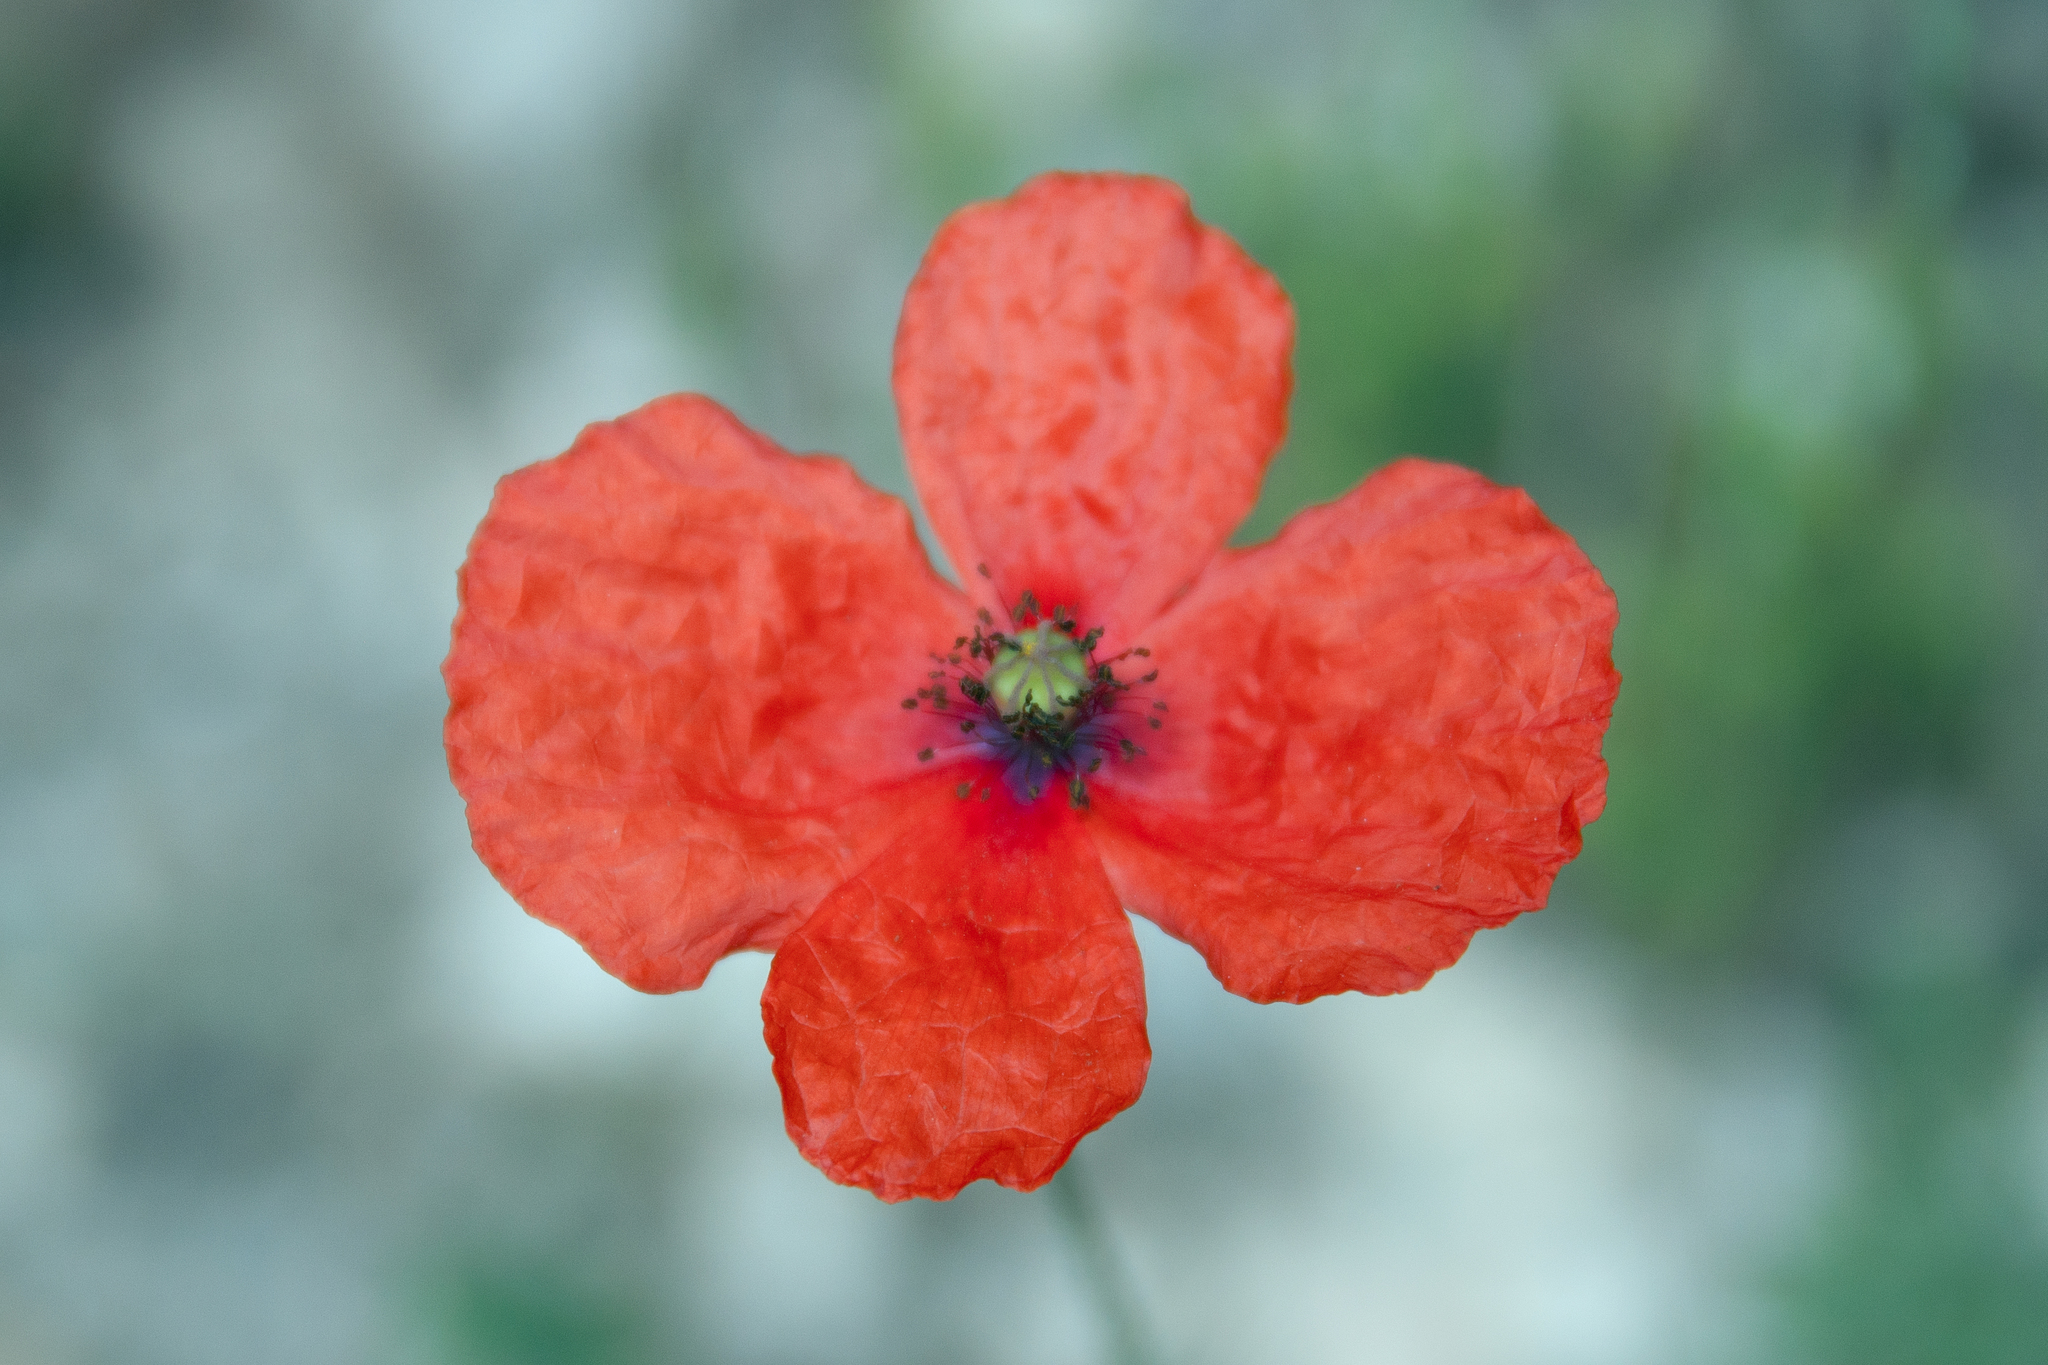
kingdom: Plantae
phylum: Tracheophyta
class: Magnoliopsida
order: Ranunculales
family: Papaveraceae
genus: Papaver
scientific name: Papaver dubium
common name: Long-headed poppy
